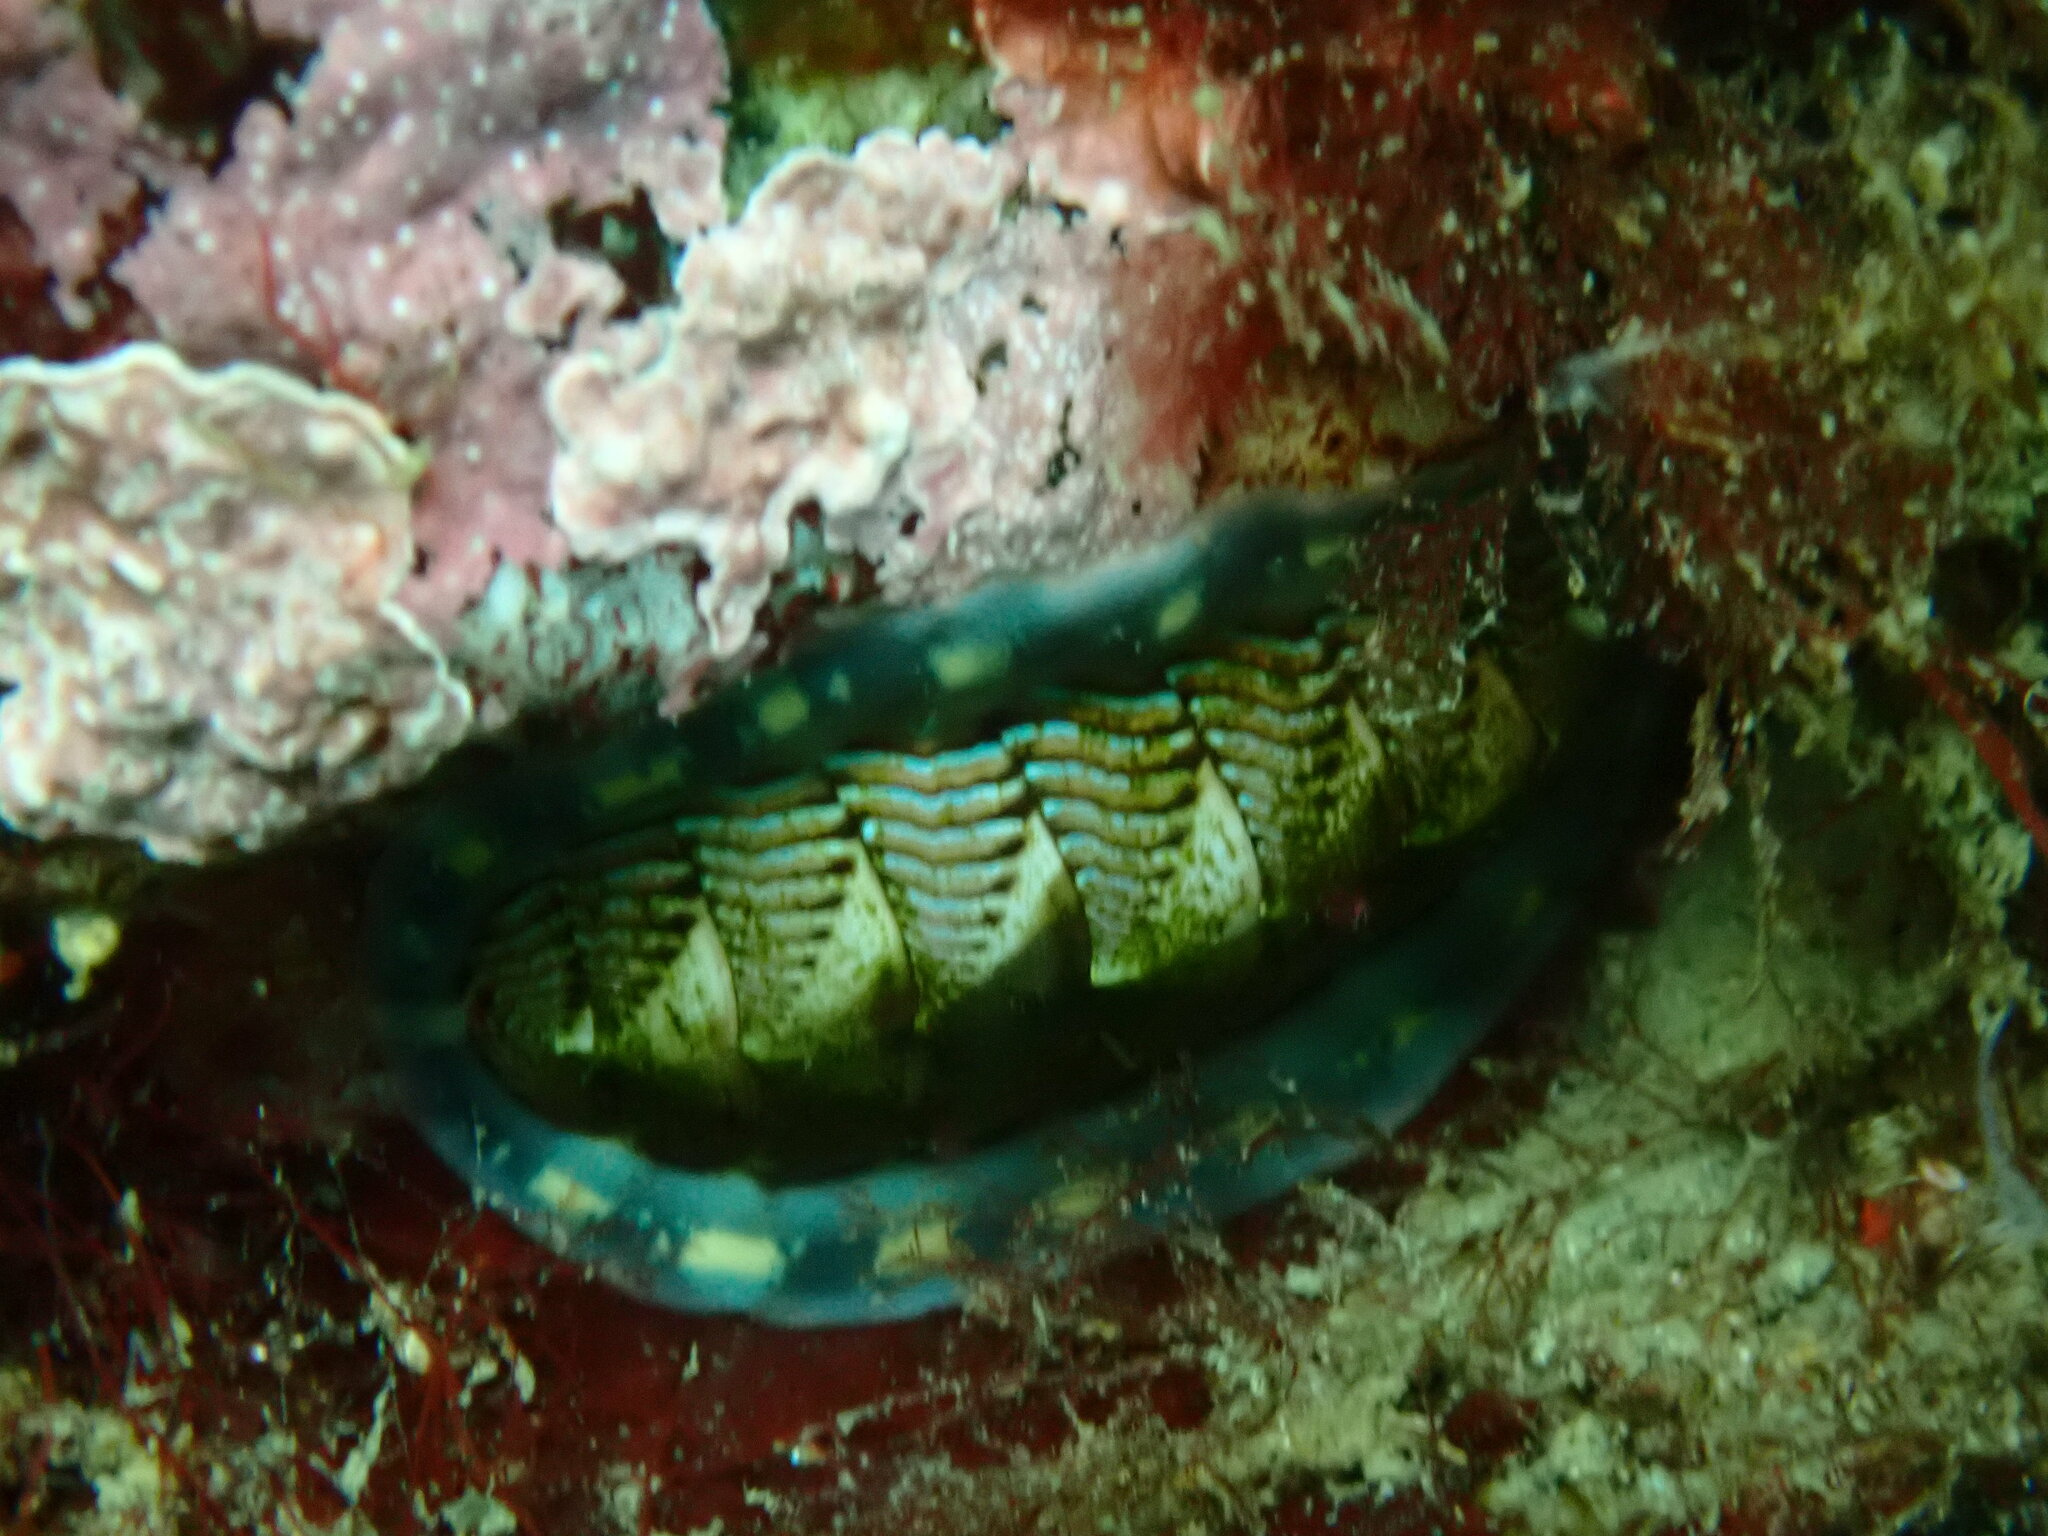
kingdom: Animalia
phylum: Mollusca
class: Polyplacophora
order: Chitonida
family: Tonicellidae
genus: Tonicella
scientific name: Tonicella lineata
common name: Lined chiton
